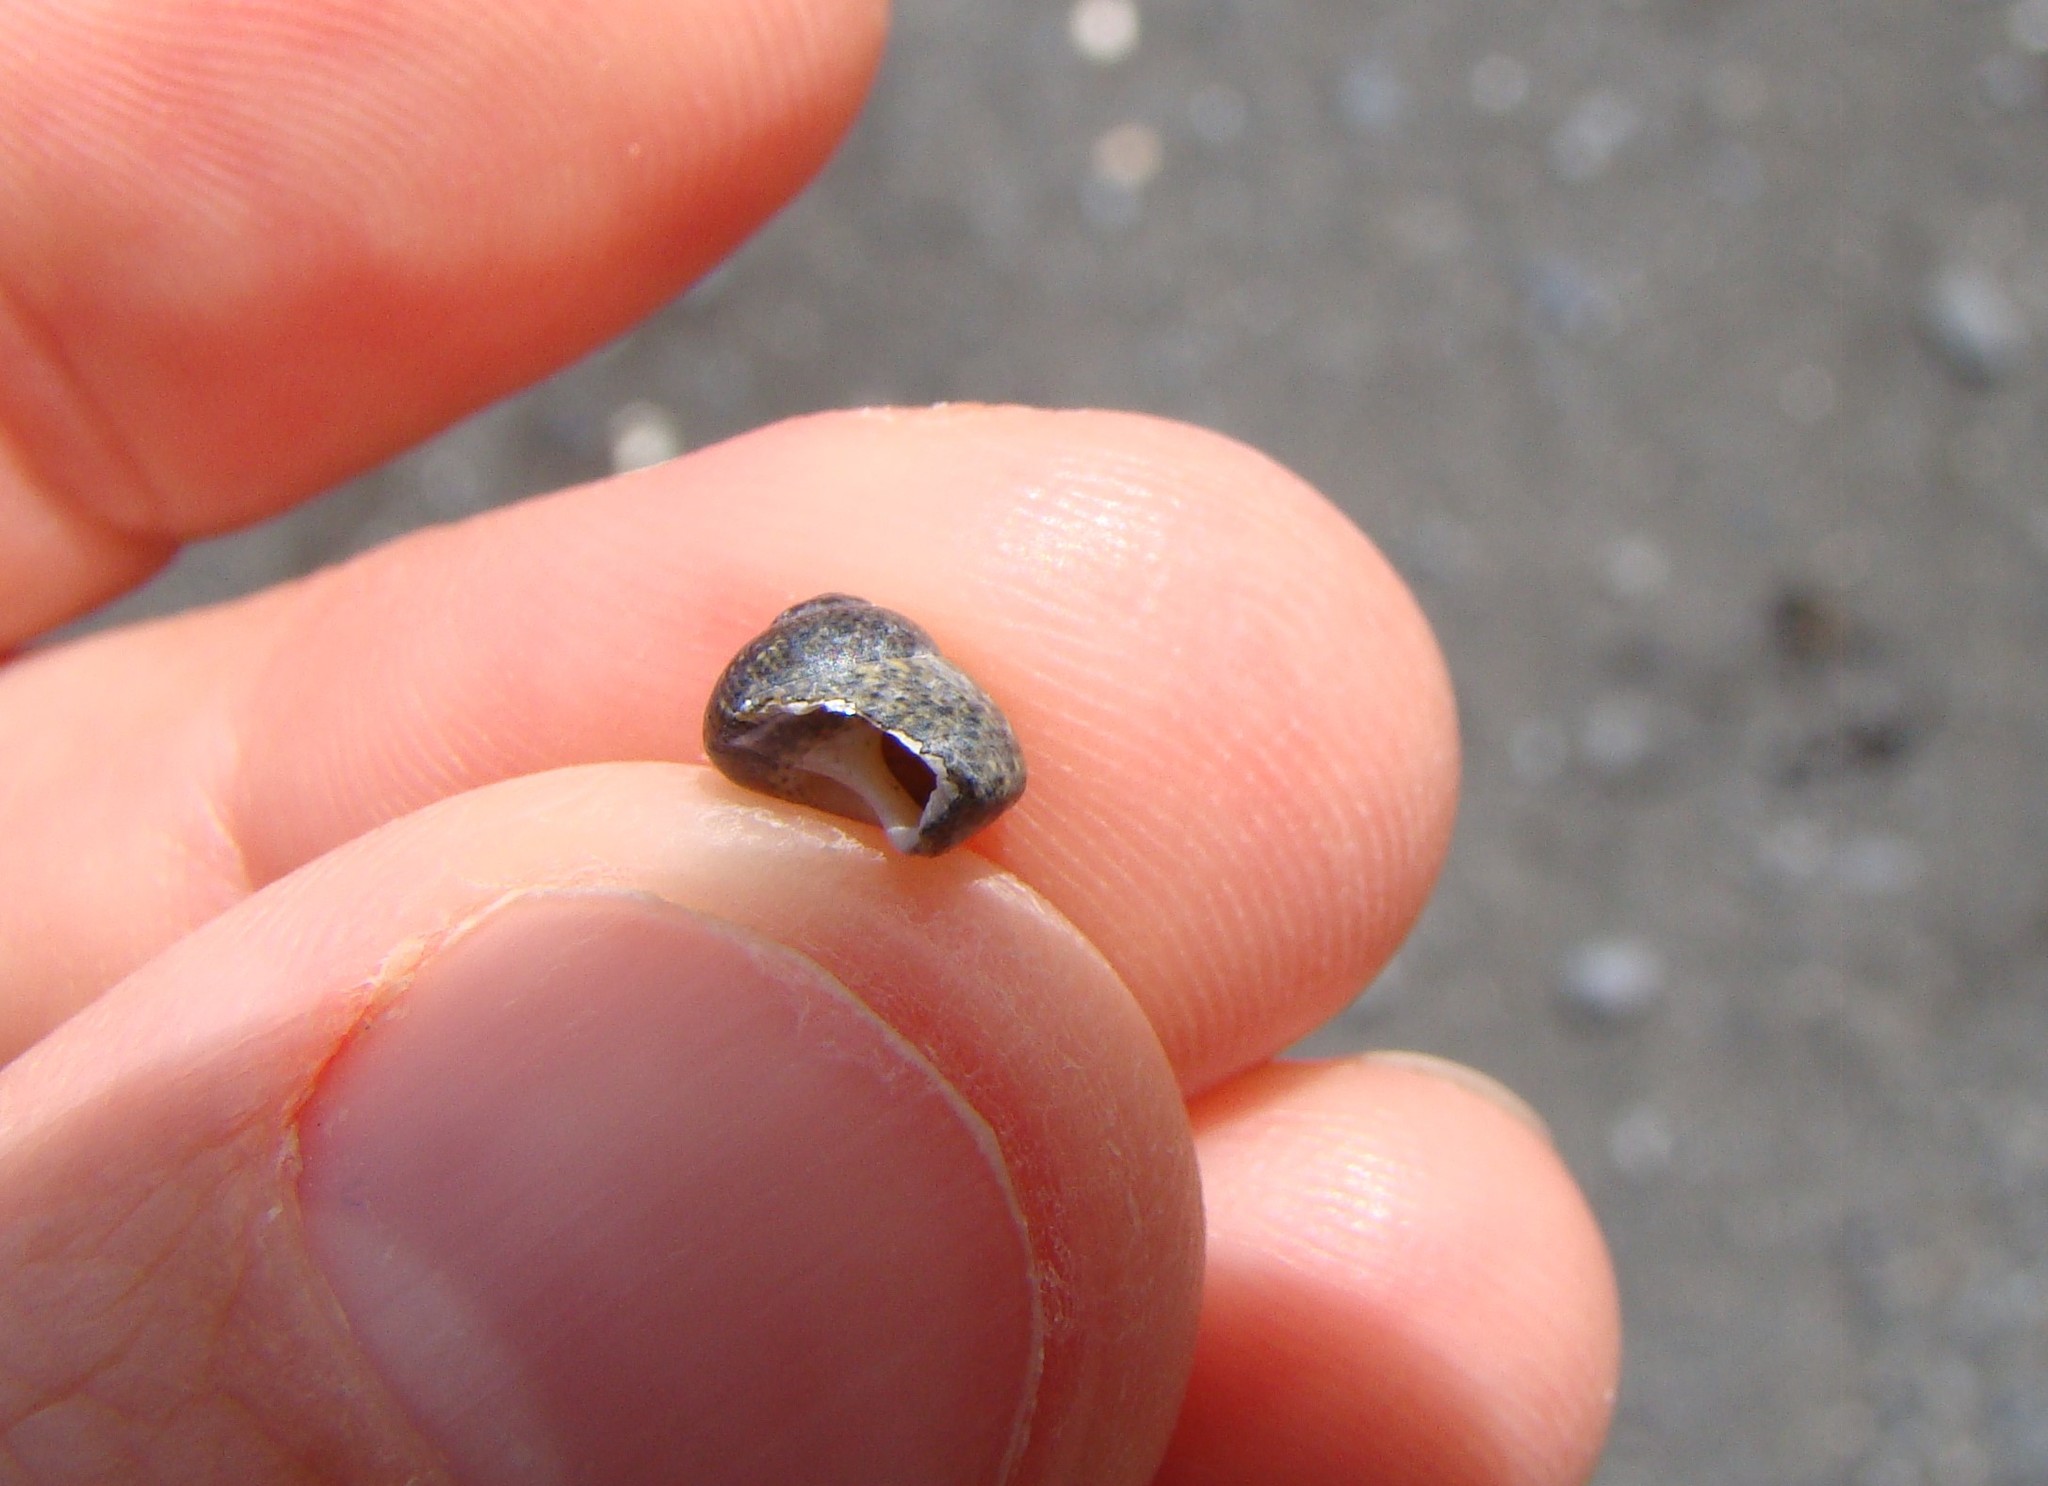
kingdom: Animalia
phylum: Mollusca
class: Gastropoda
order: Trochida
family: Trochidae
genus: Micrelenchus
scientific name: Micrelenchus tessellatus
